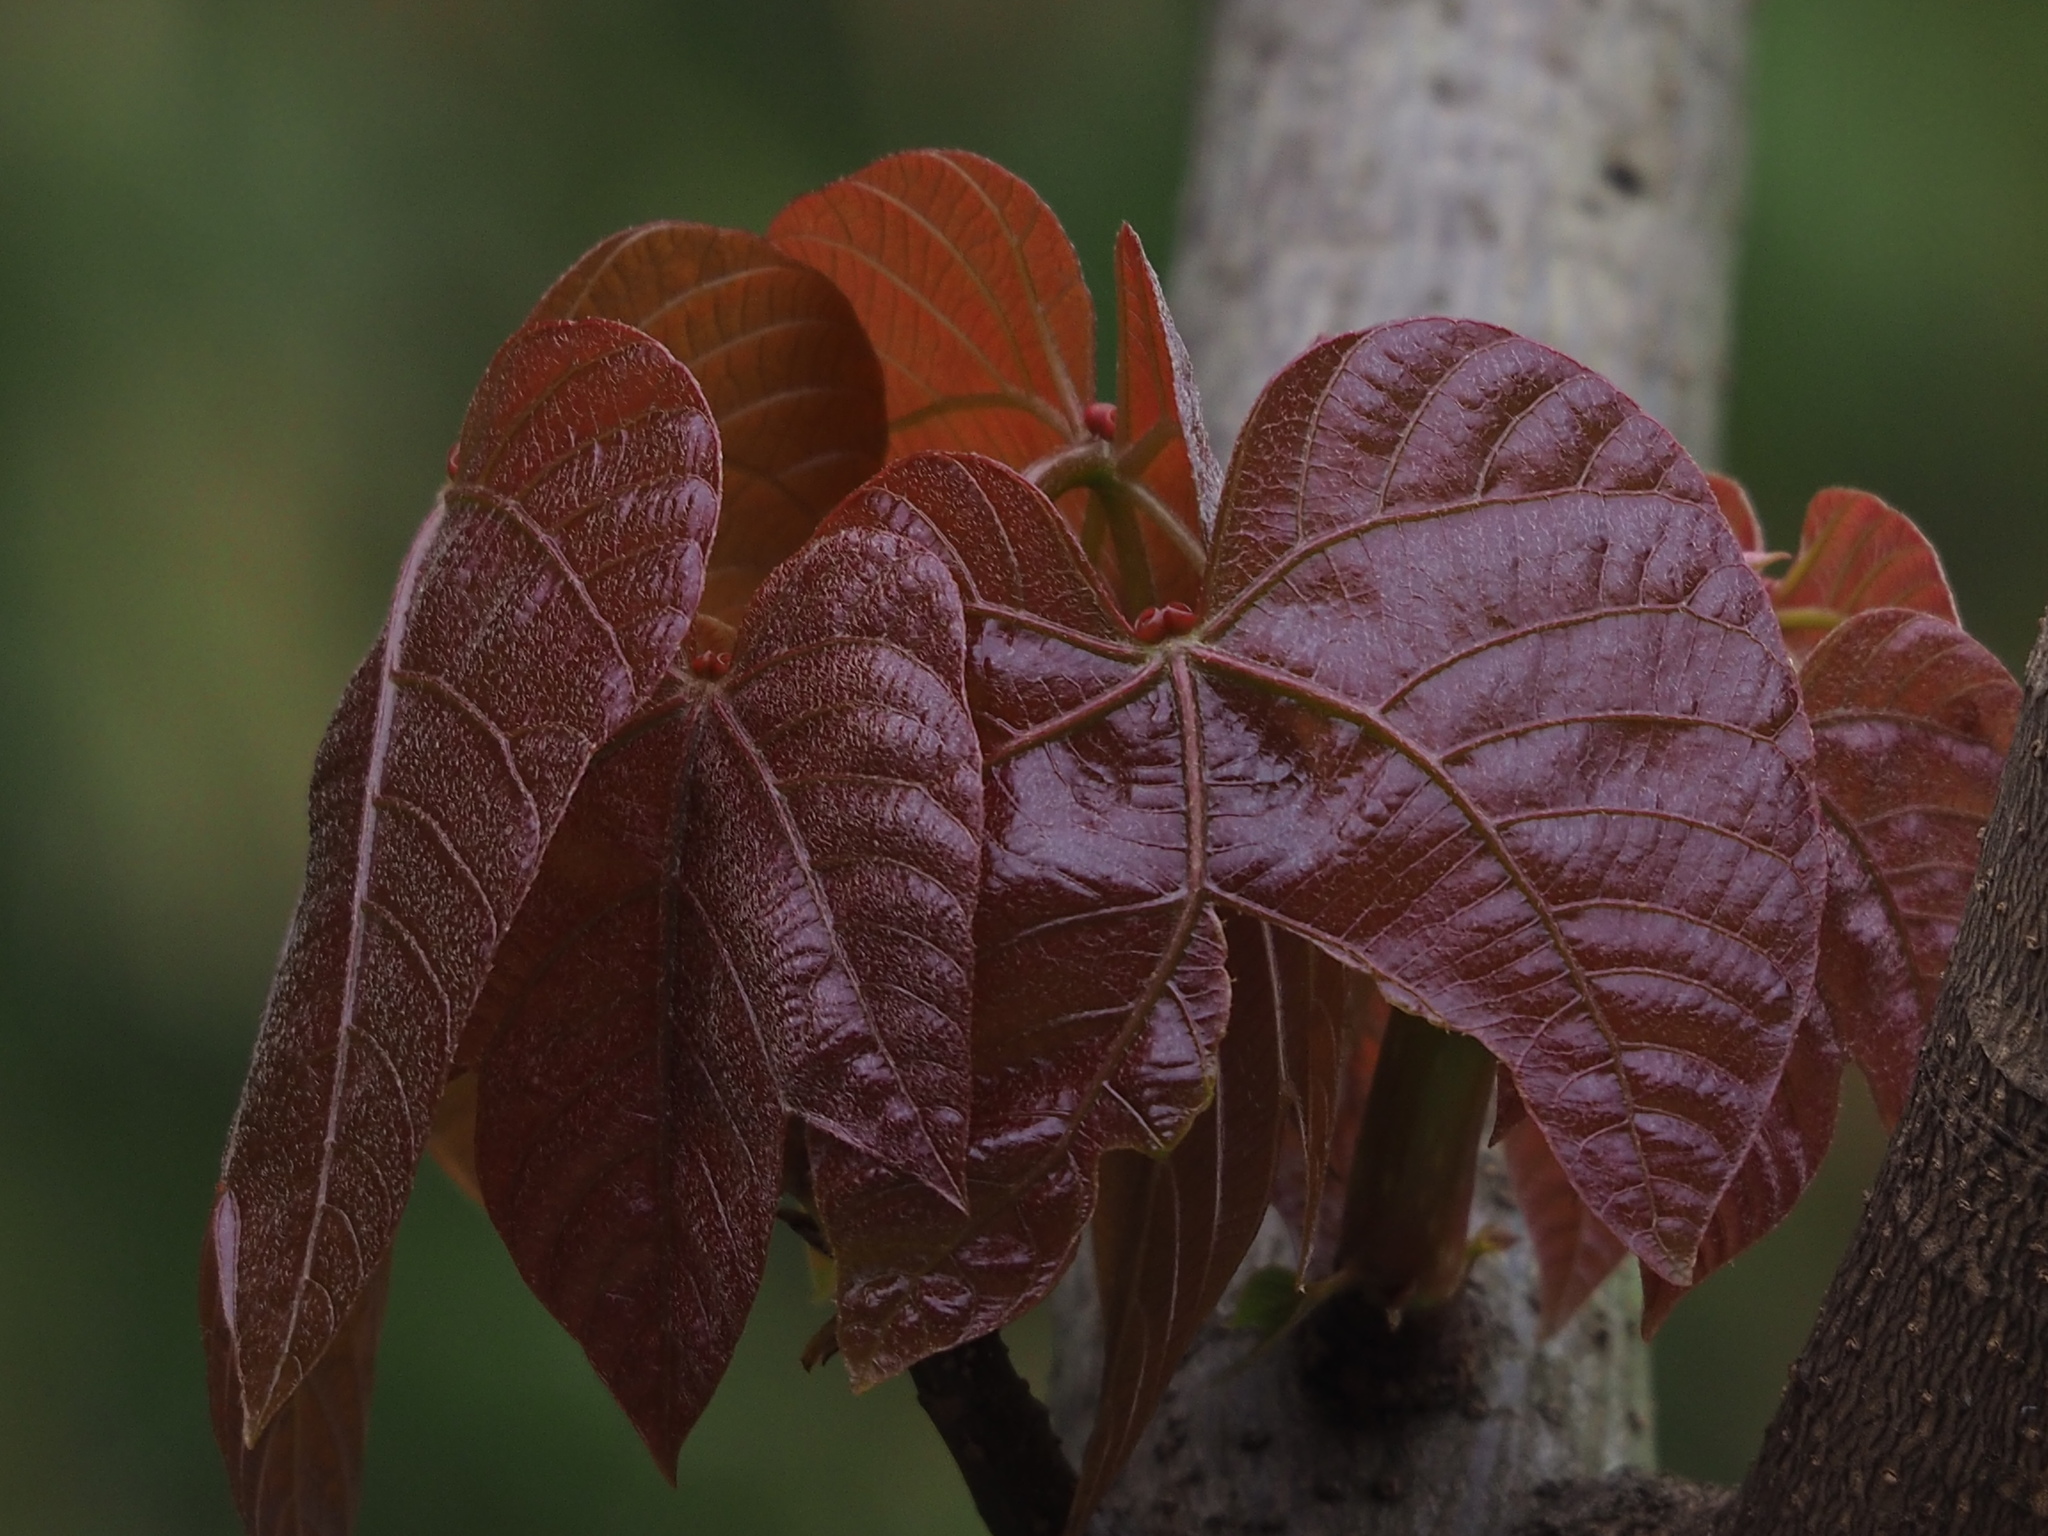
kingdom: Plantae
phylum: Tracheophyta
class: Magnoliopsida
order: Malpighiales
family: Euphorbiaceae
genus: Vernicia
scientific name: Vernicia montana
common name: Mu oil tree
